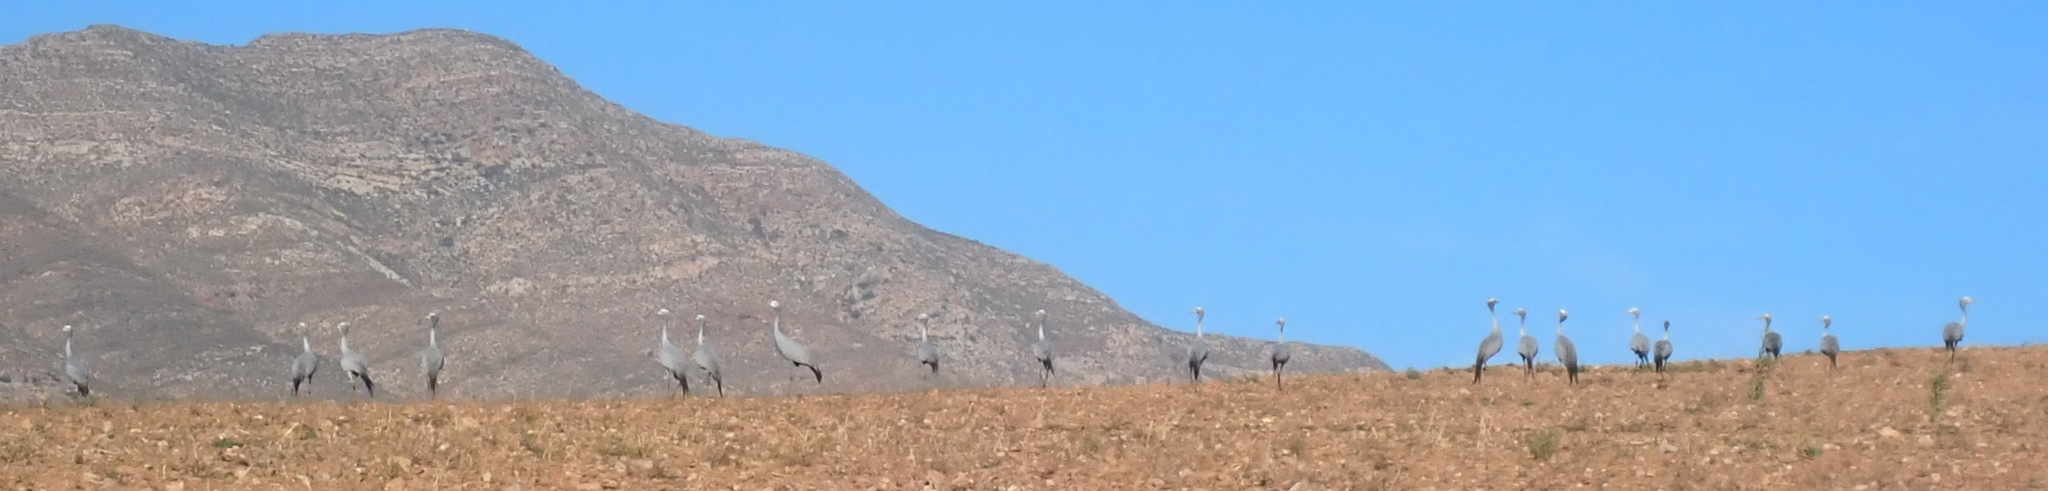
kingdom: Animalia
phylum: Chordata
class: Aves
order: Gruiformes
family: Gruidae
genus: Anthropoides
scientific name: Anthropoides paradiseus
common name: Blue crane
